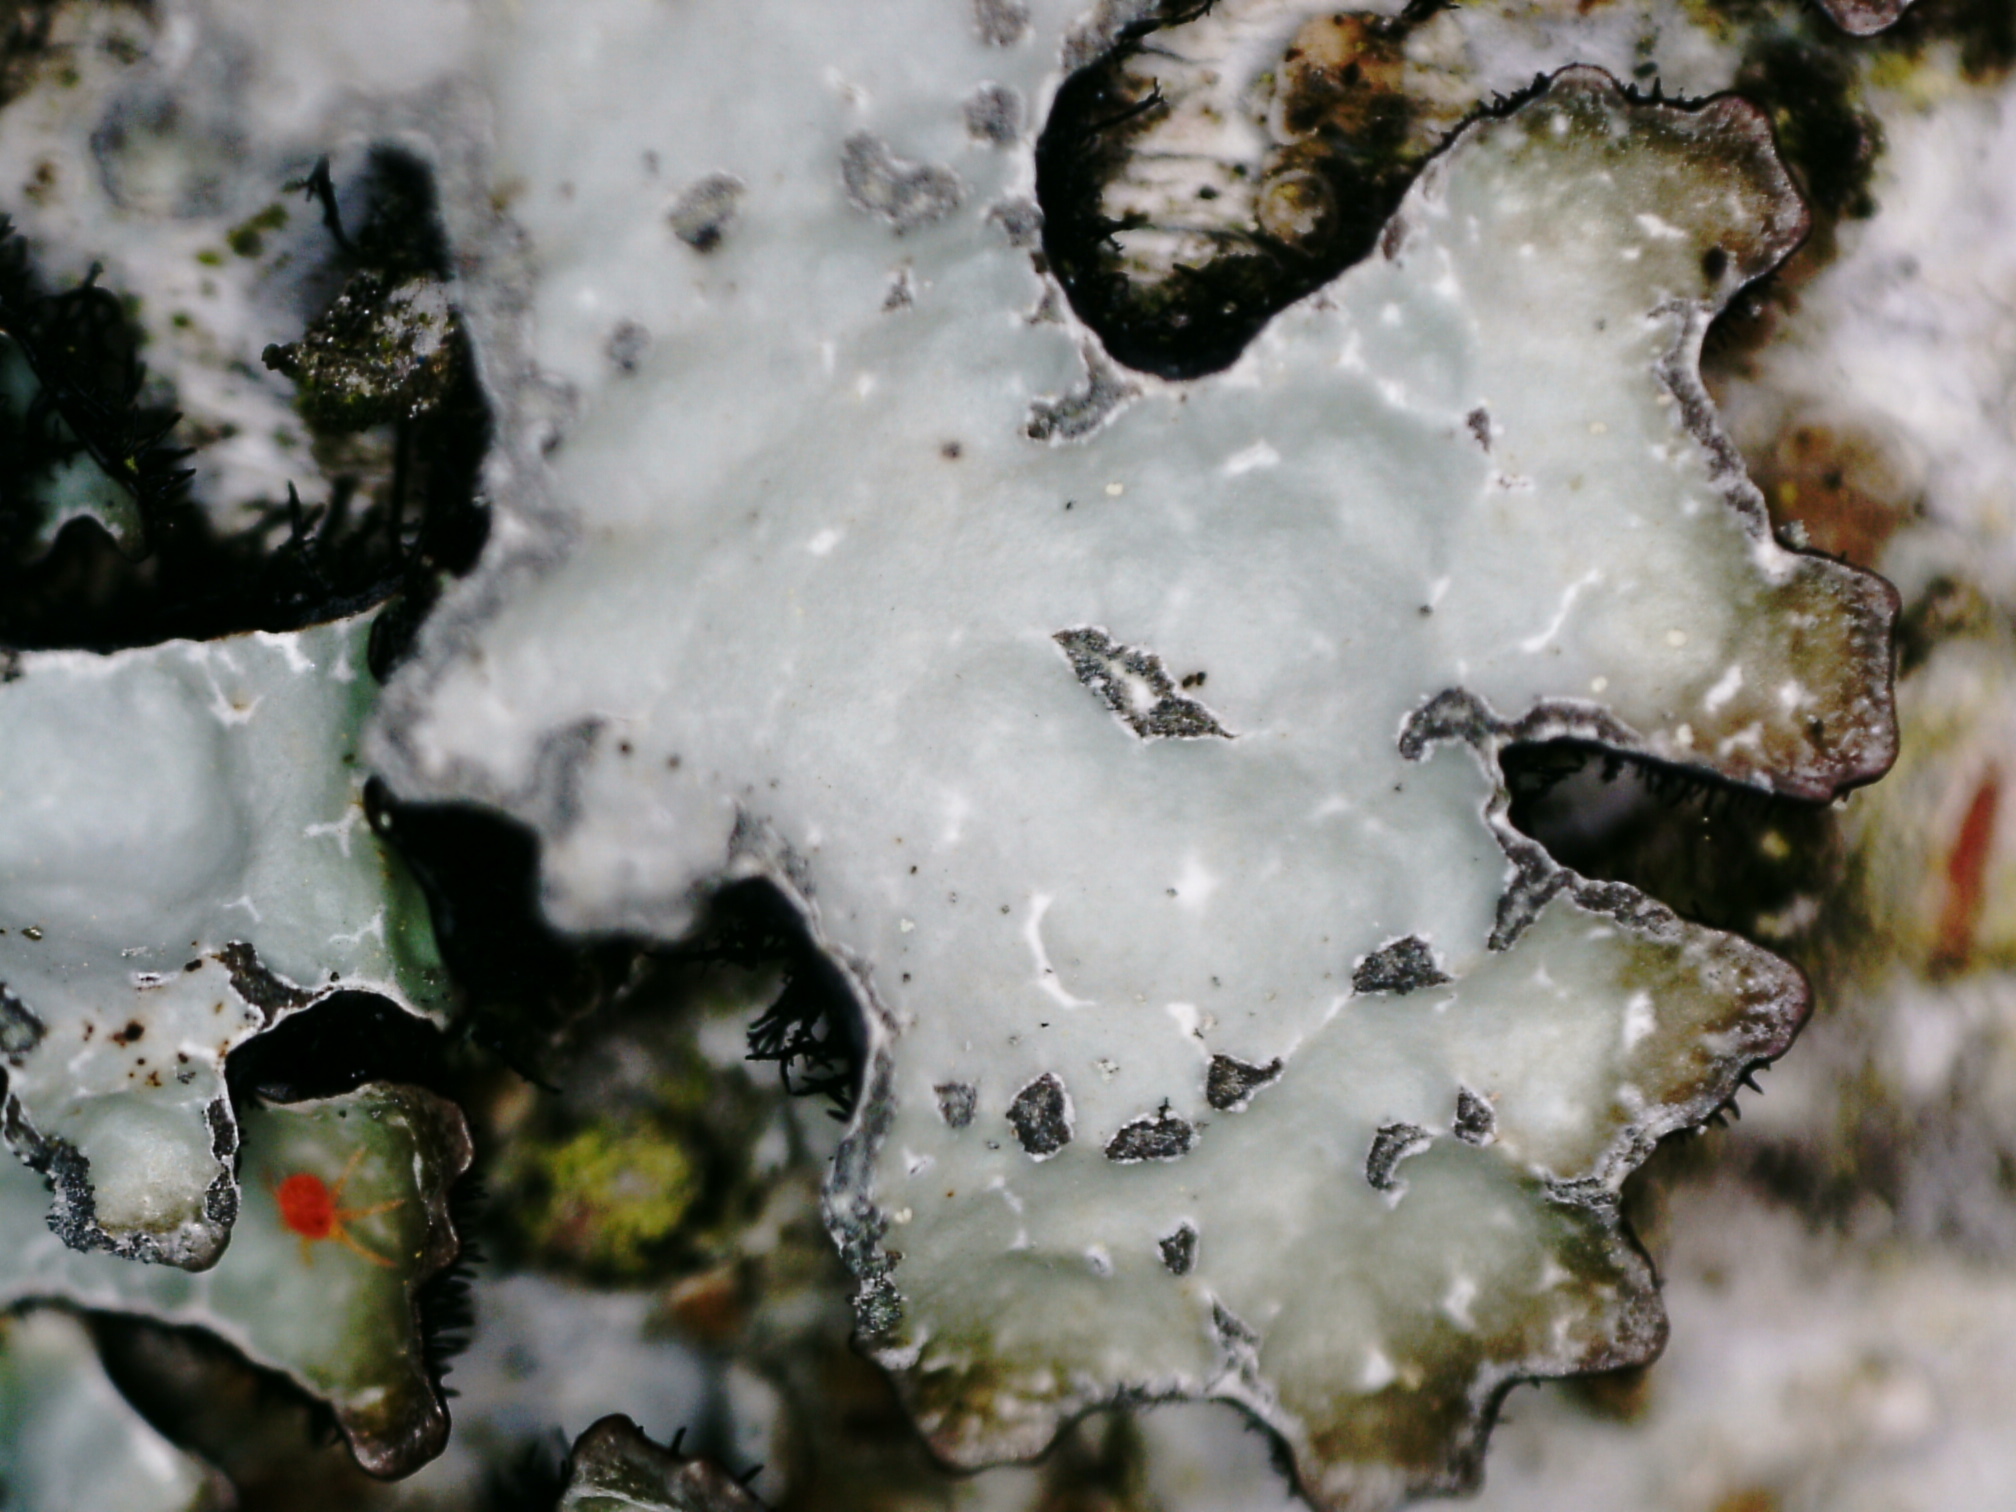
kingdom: Fungi
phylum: Ascomycota
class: Lecanoromycetes
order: Lecanorales
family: Parmeliaceae
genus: Parmelia
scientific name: Parmelia sulcata
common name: Netted shield lichen
